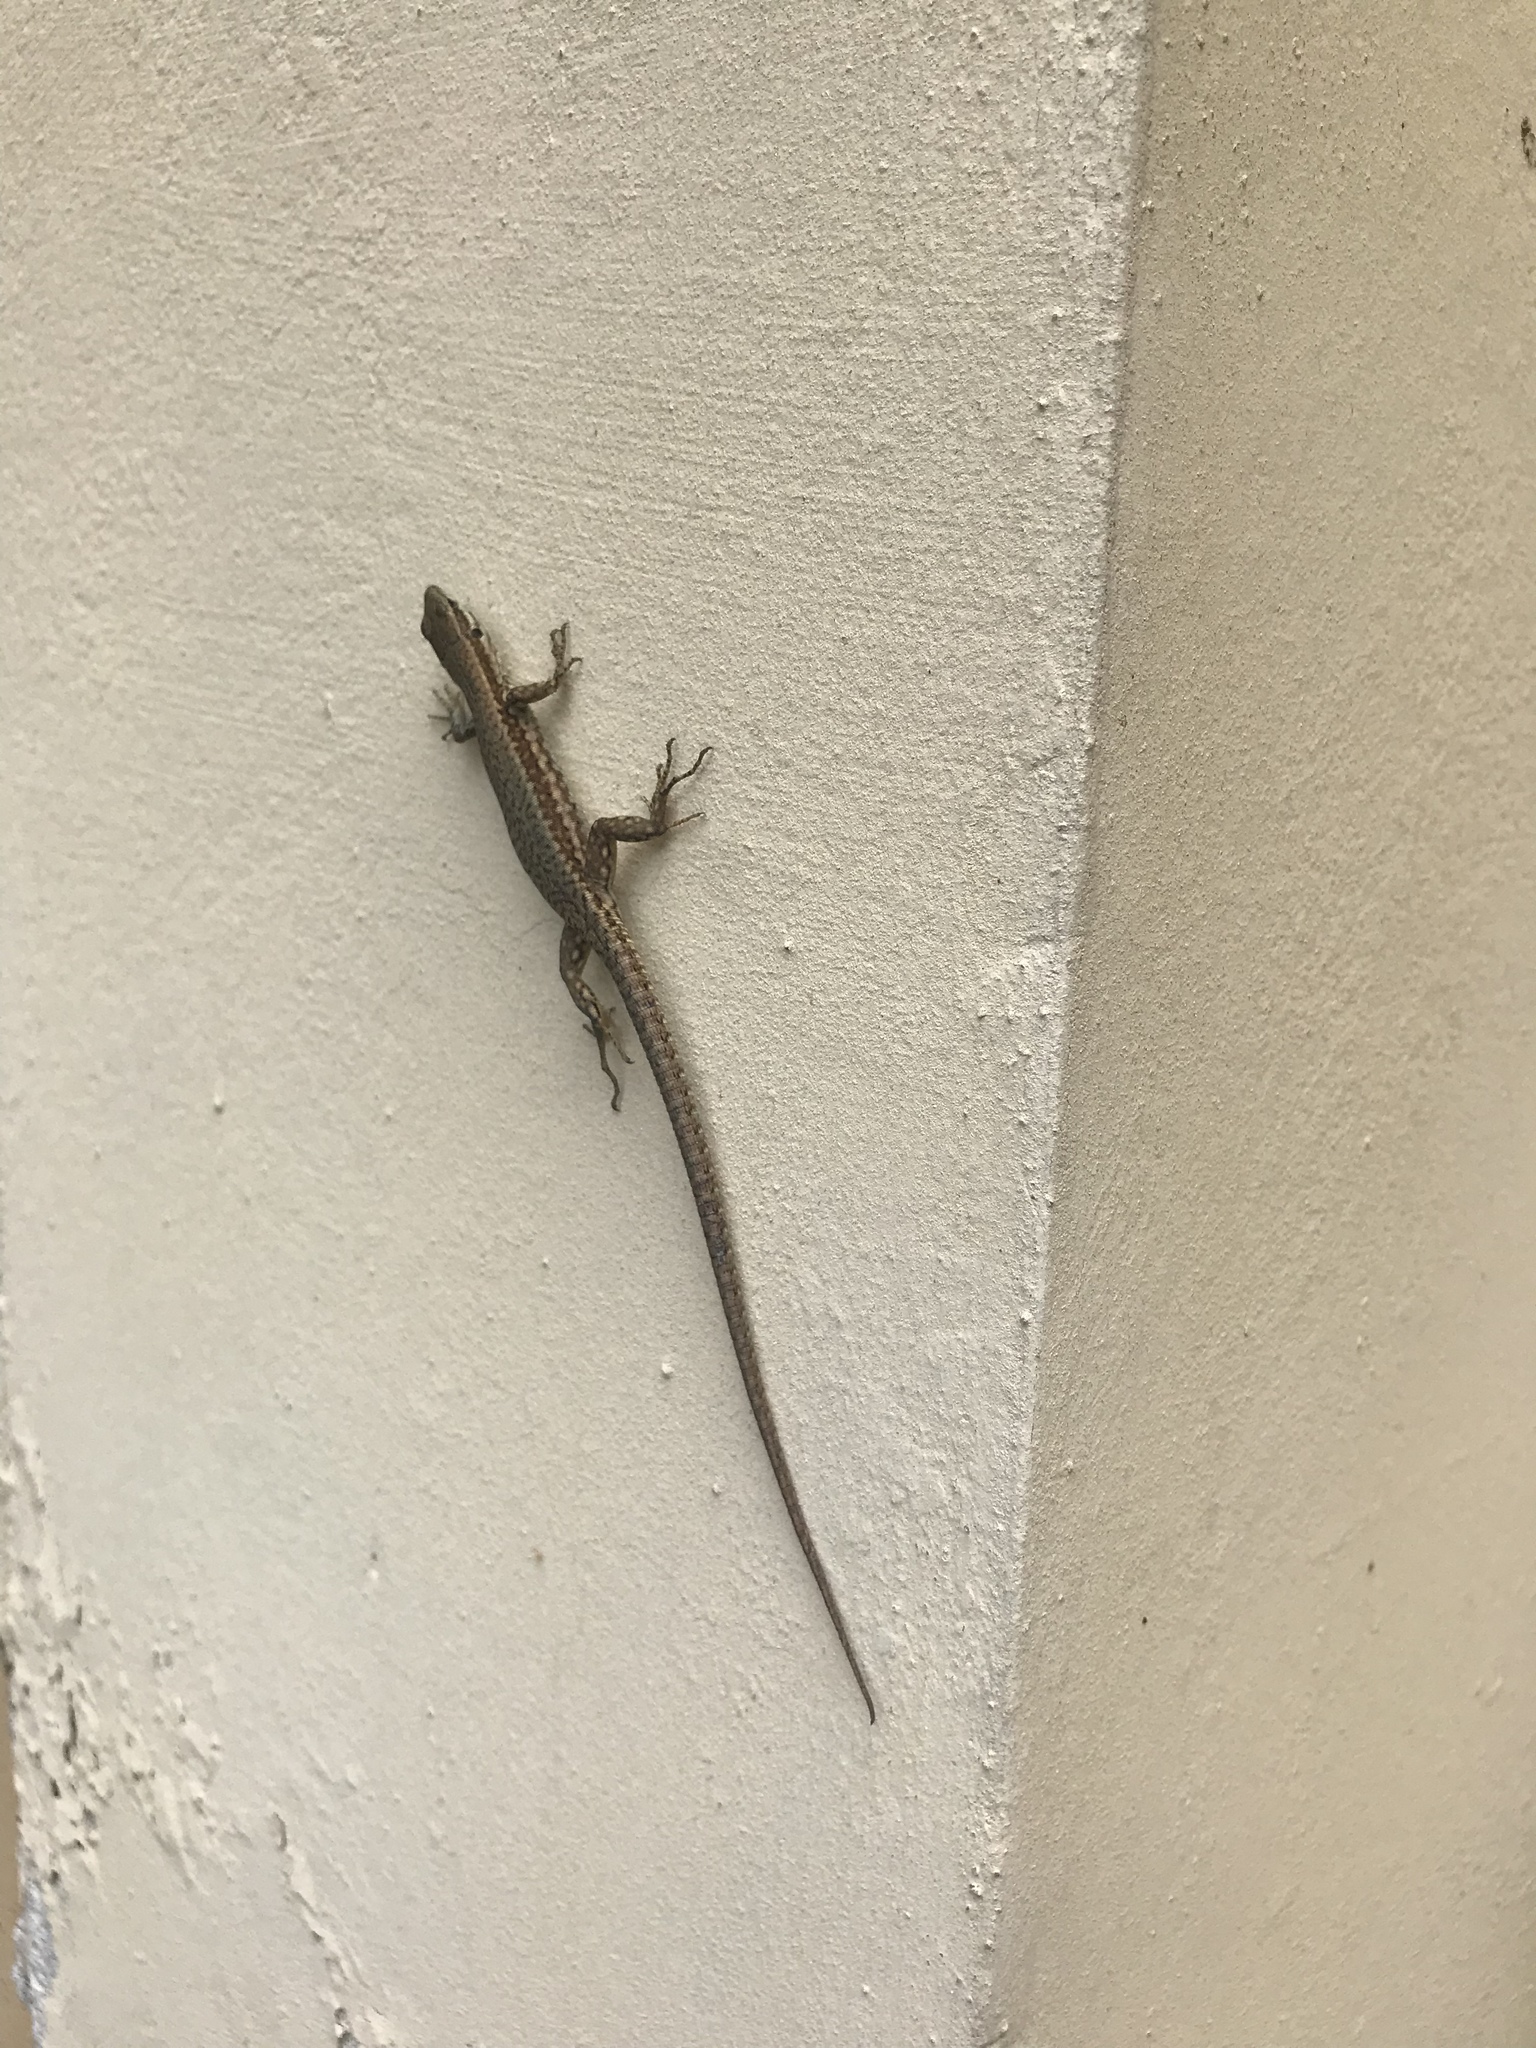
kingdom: Animalia
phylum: Chordata
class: Squamata
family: Lacertidae
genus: Podarcis
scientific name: Podarcis muralis
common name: Common wall lizard
